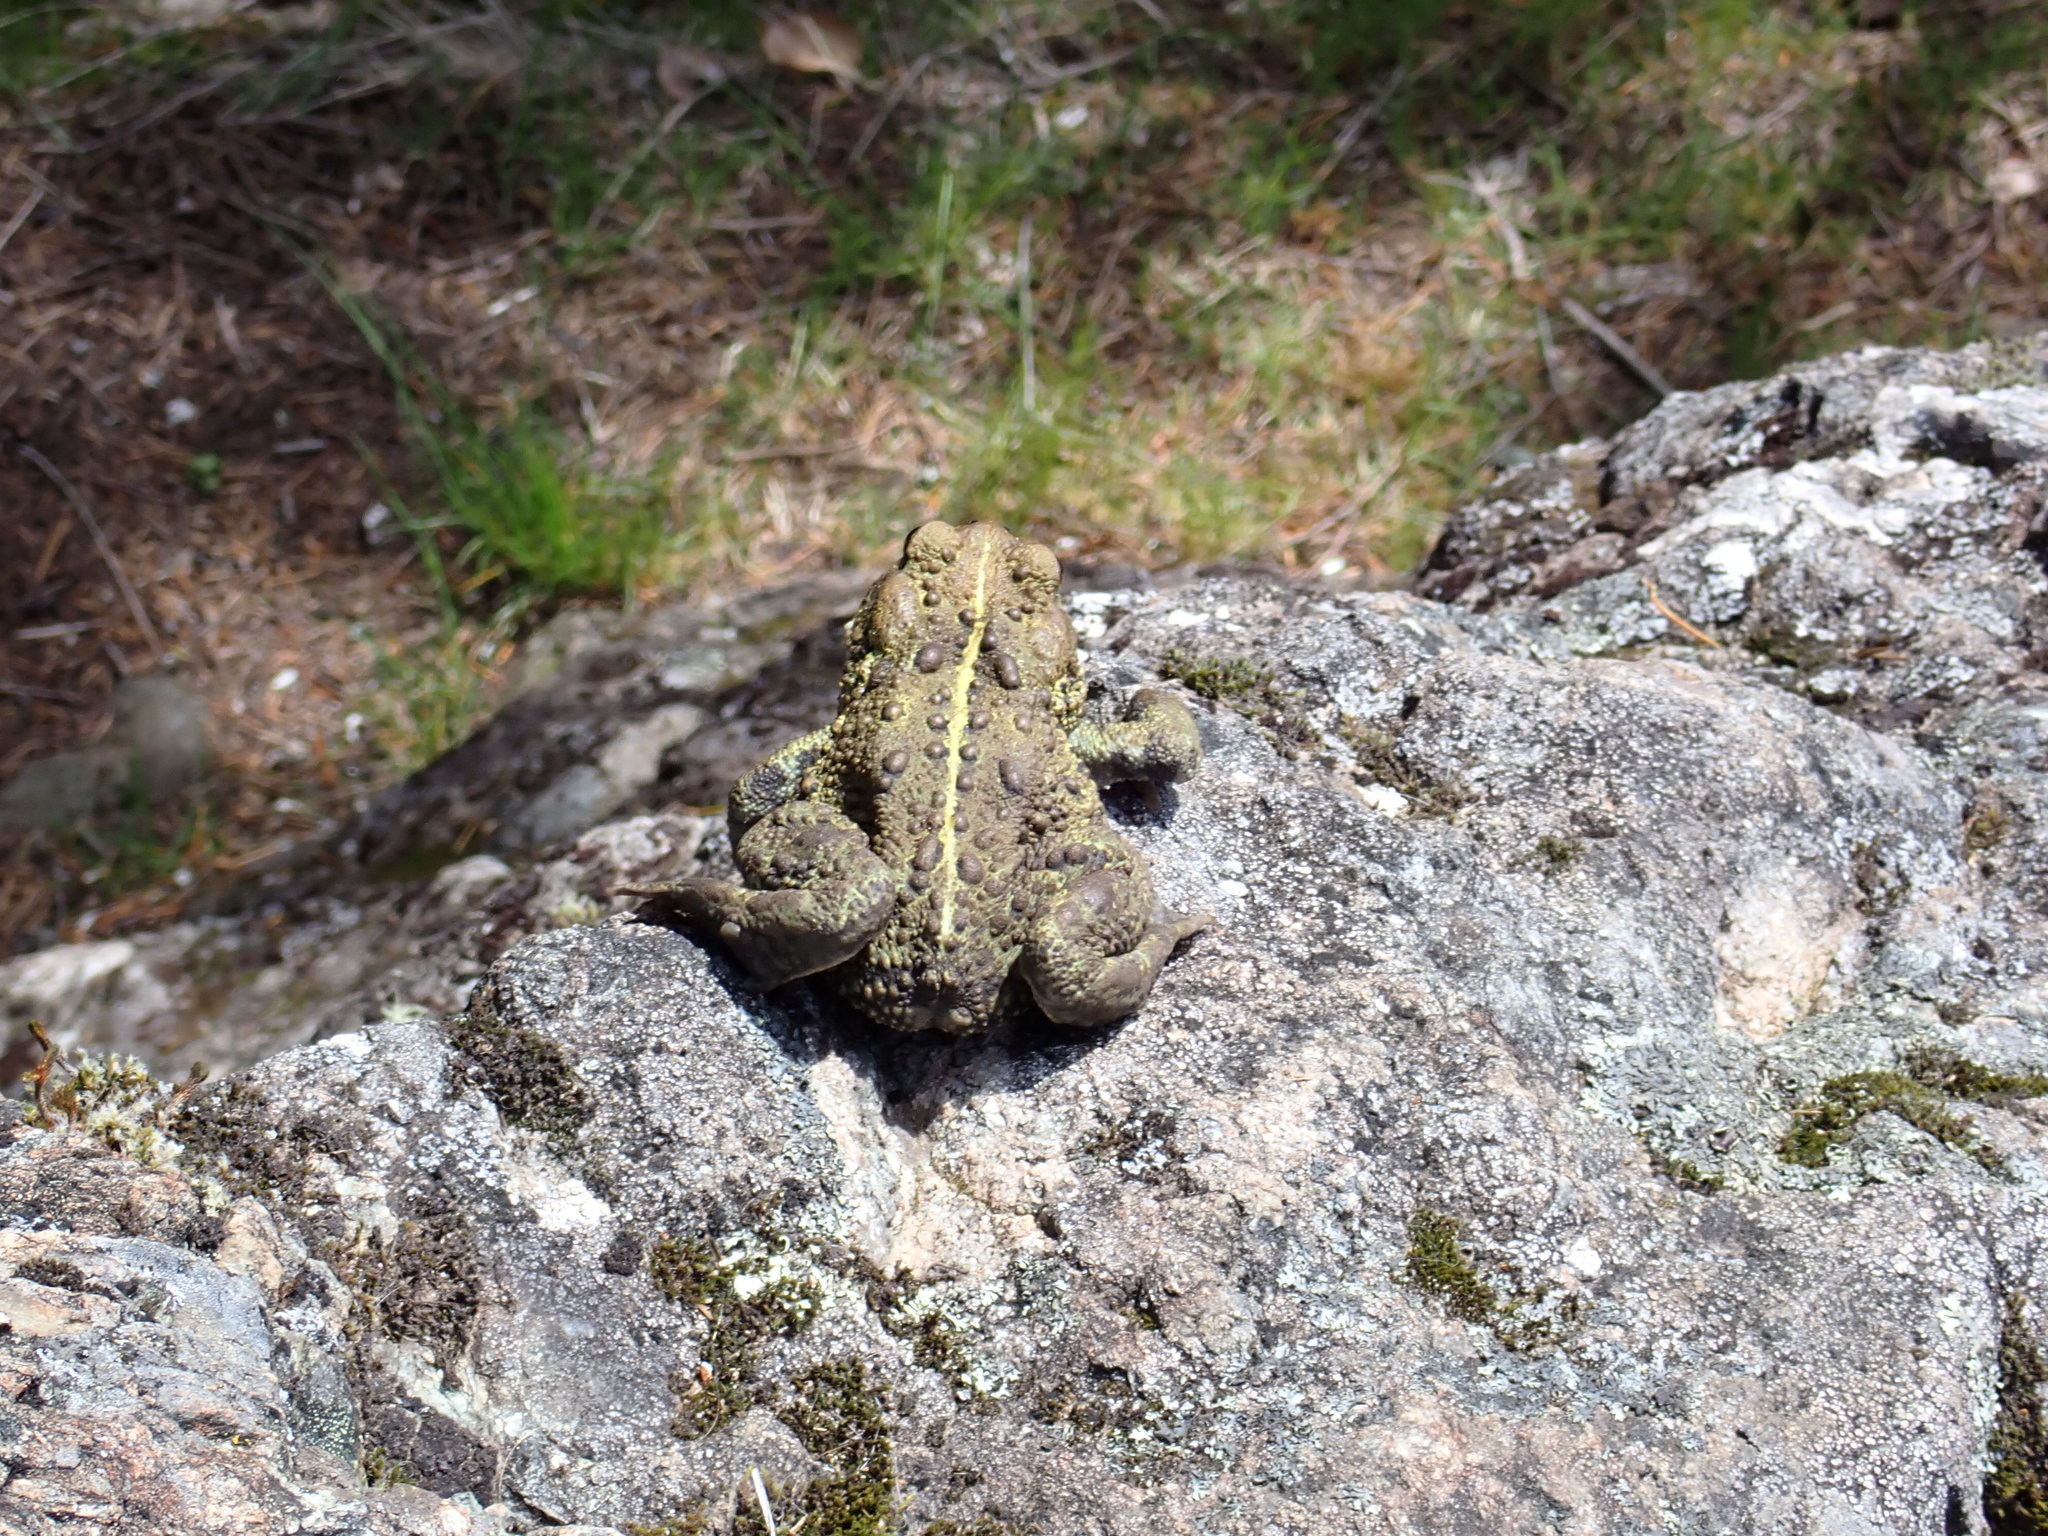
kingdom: Animalia
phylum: Chordata
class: Amphibia
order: Anura
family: Bufonidae
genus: Anaxyrus
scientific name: Anaxyrus boreas
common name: Western toad
